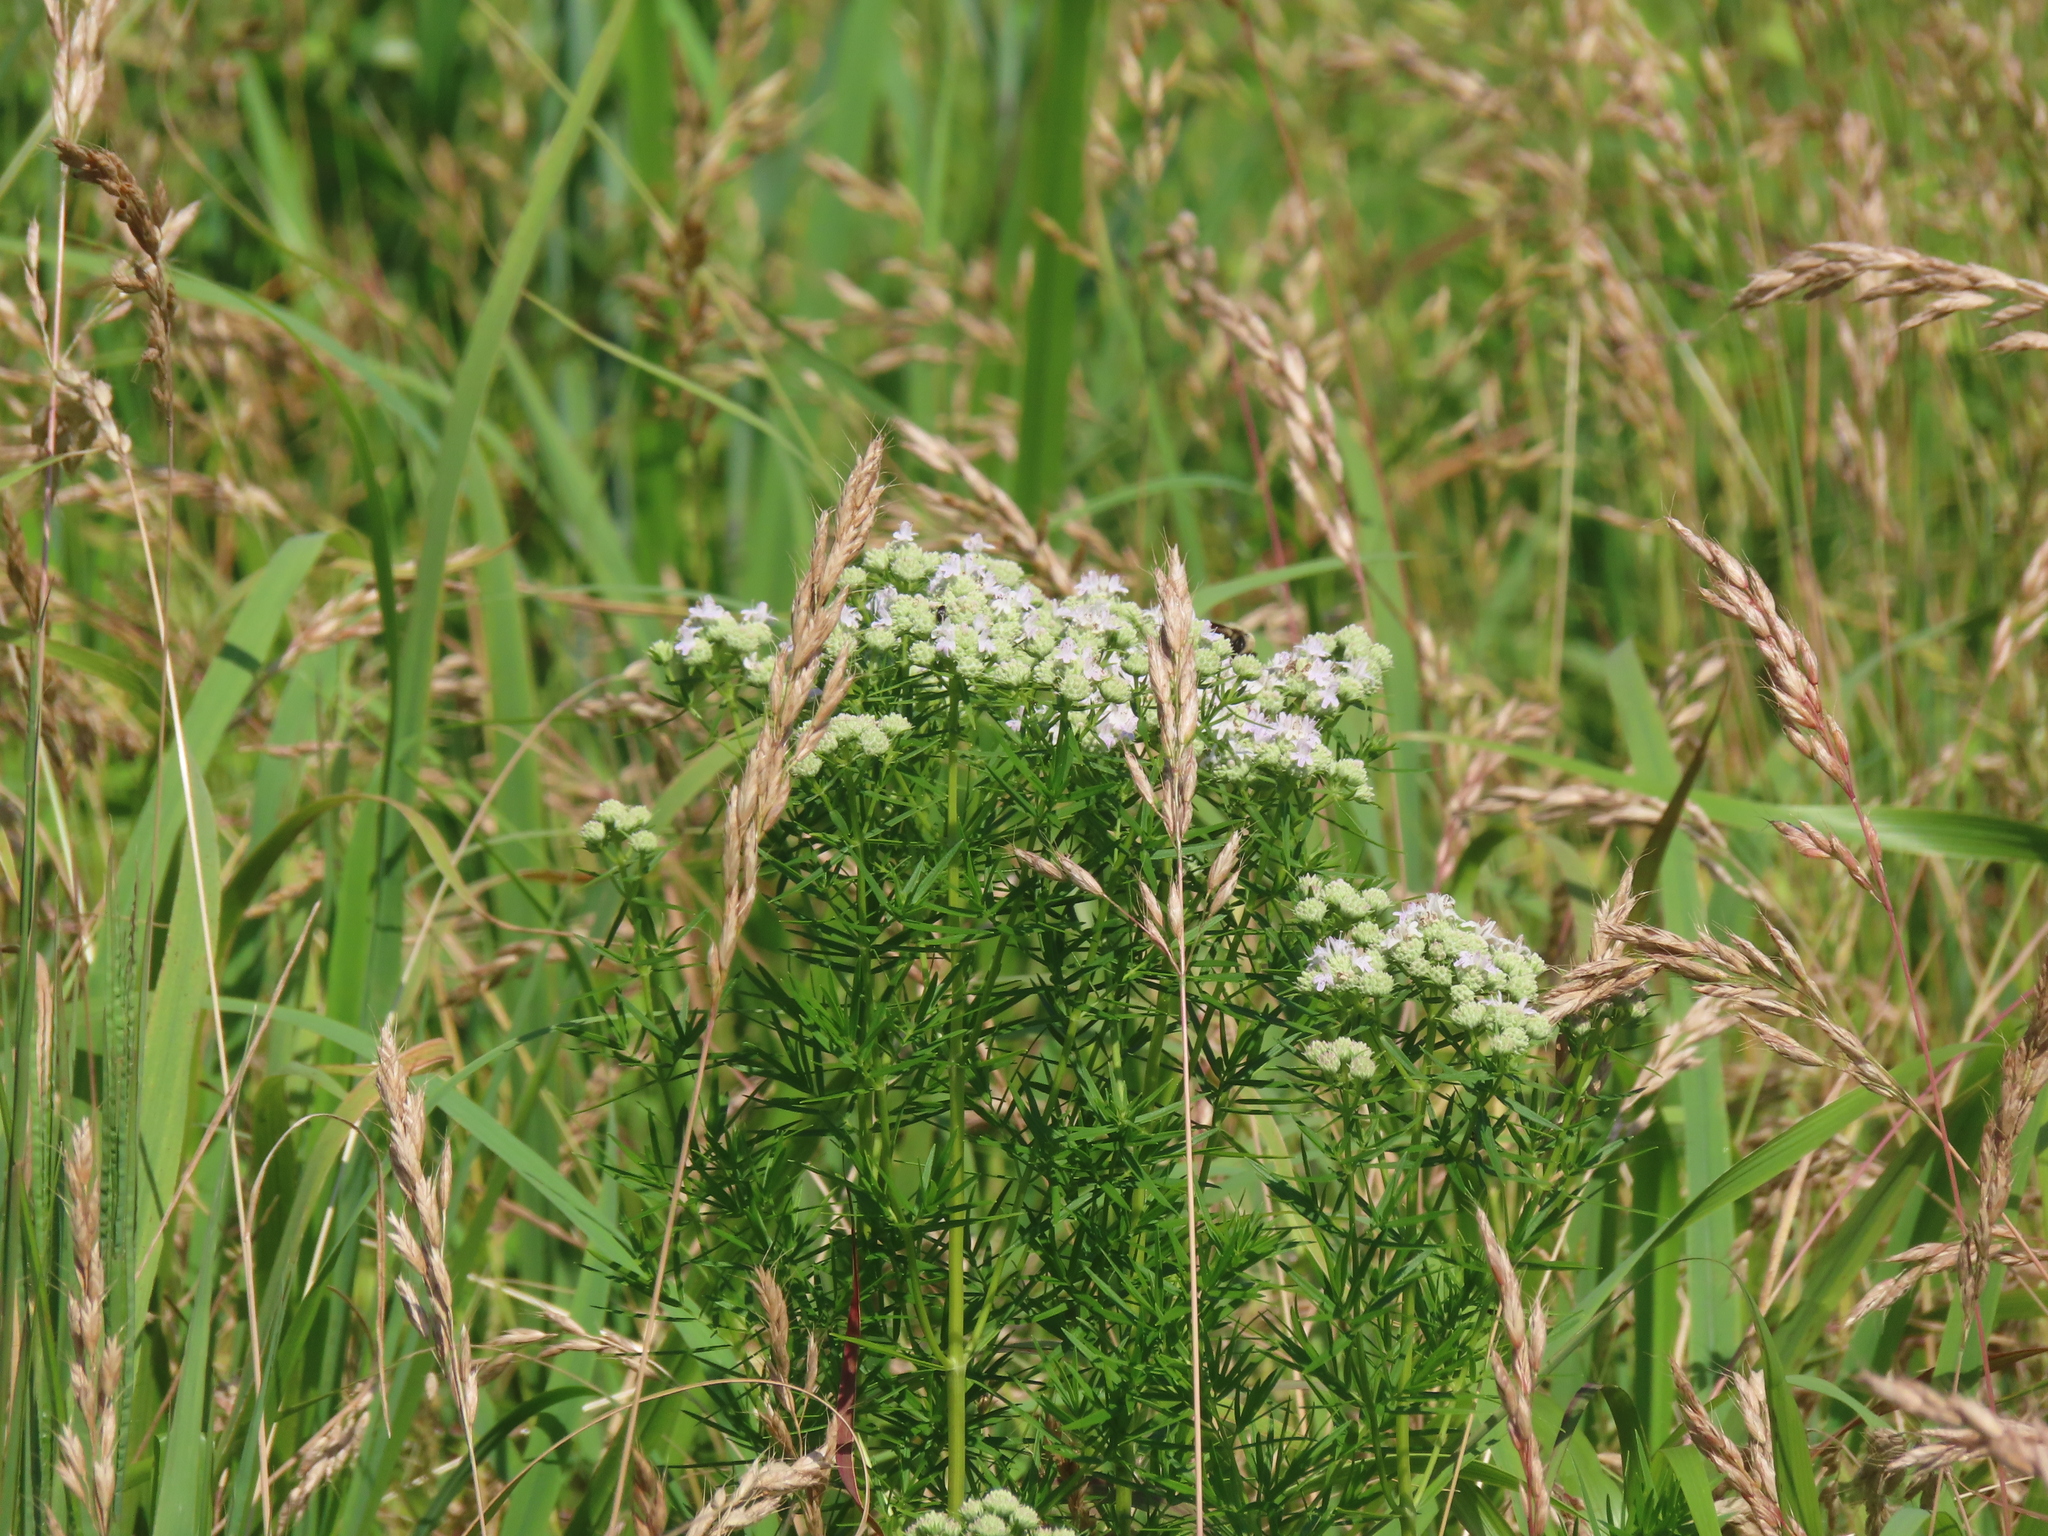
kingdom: Plantae
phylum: Tracheophyta
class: Magnoliopsida
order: Lamiales
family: Lamiaceae
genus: Pycnanthemum
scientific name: Pycnanthemum virginianum
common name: Virginia mountain-mint
